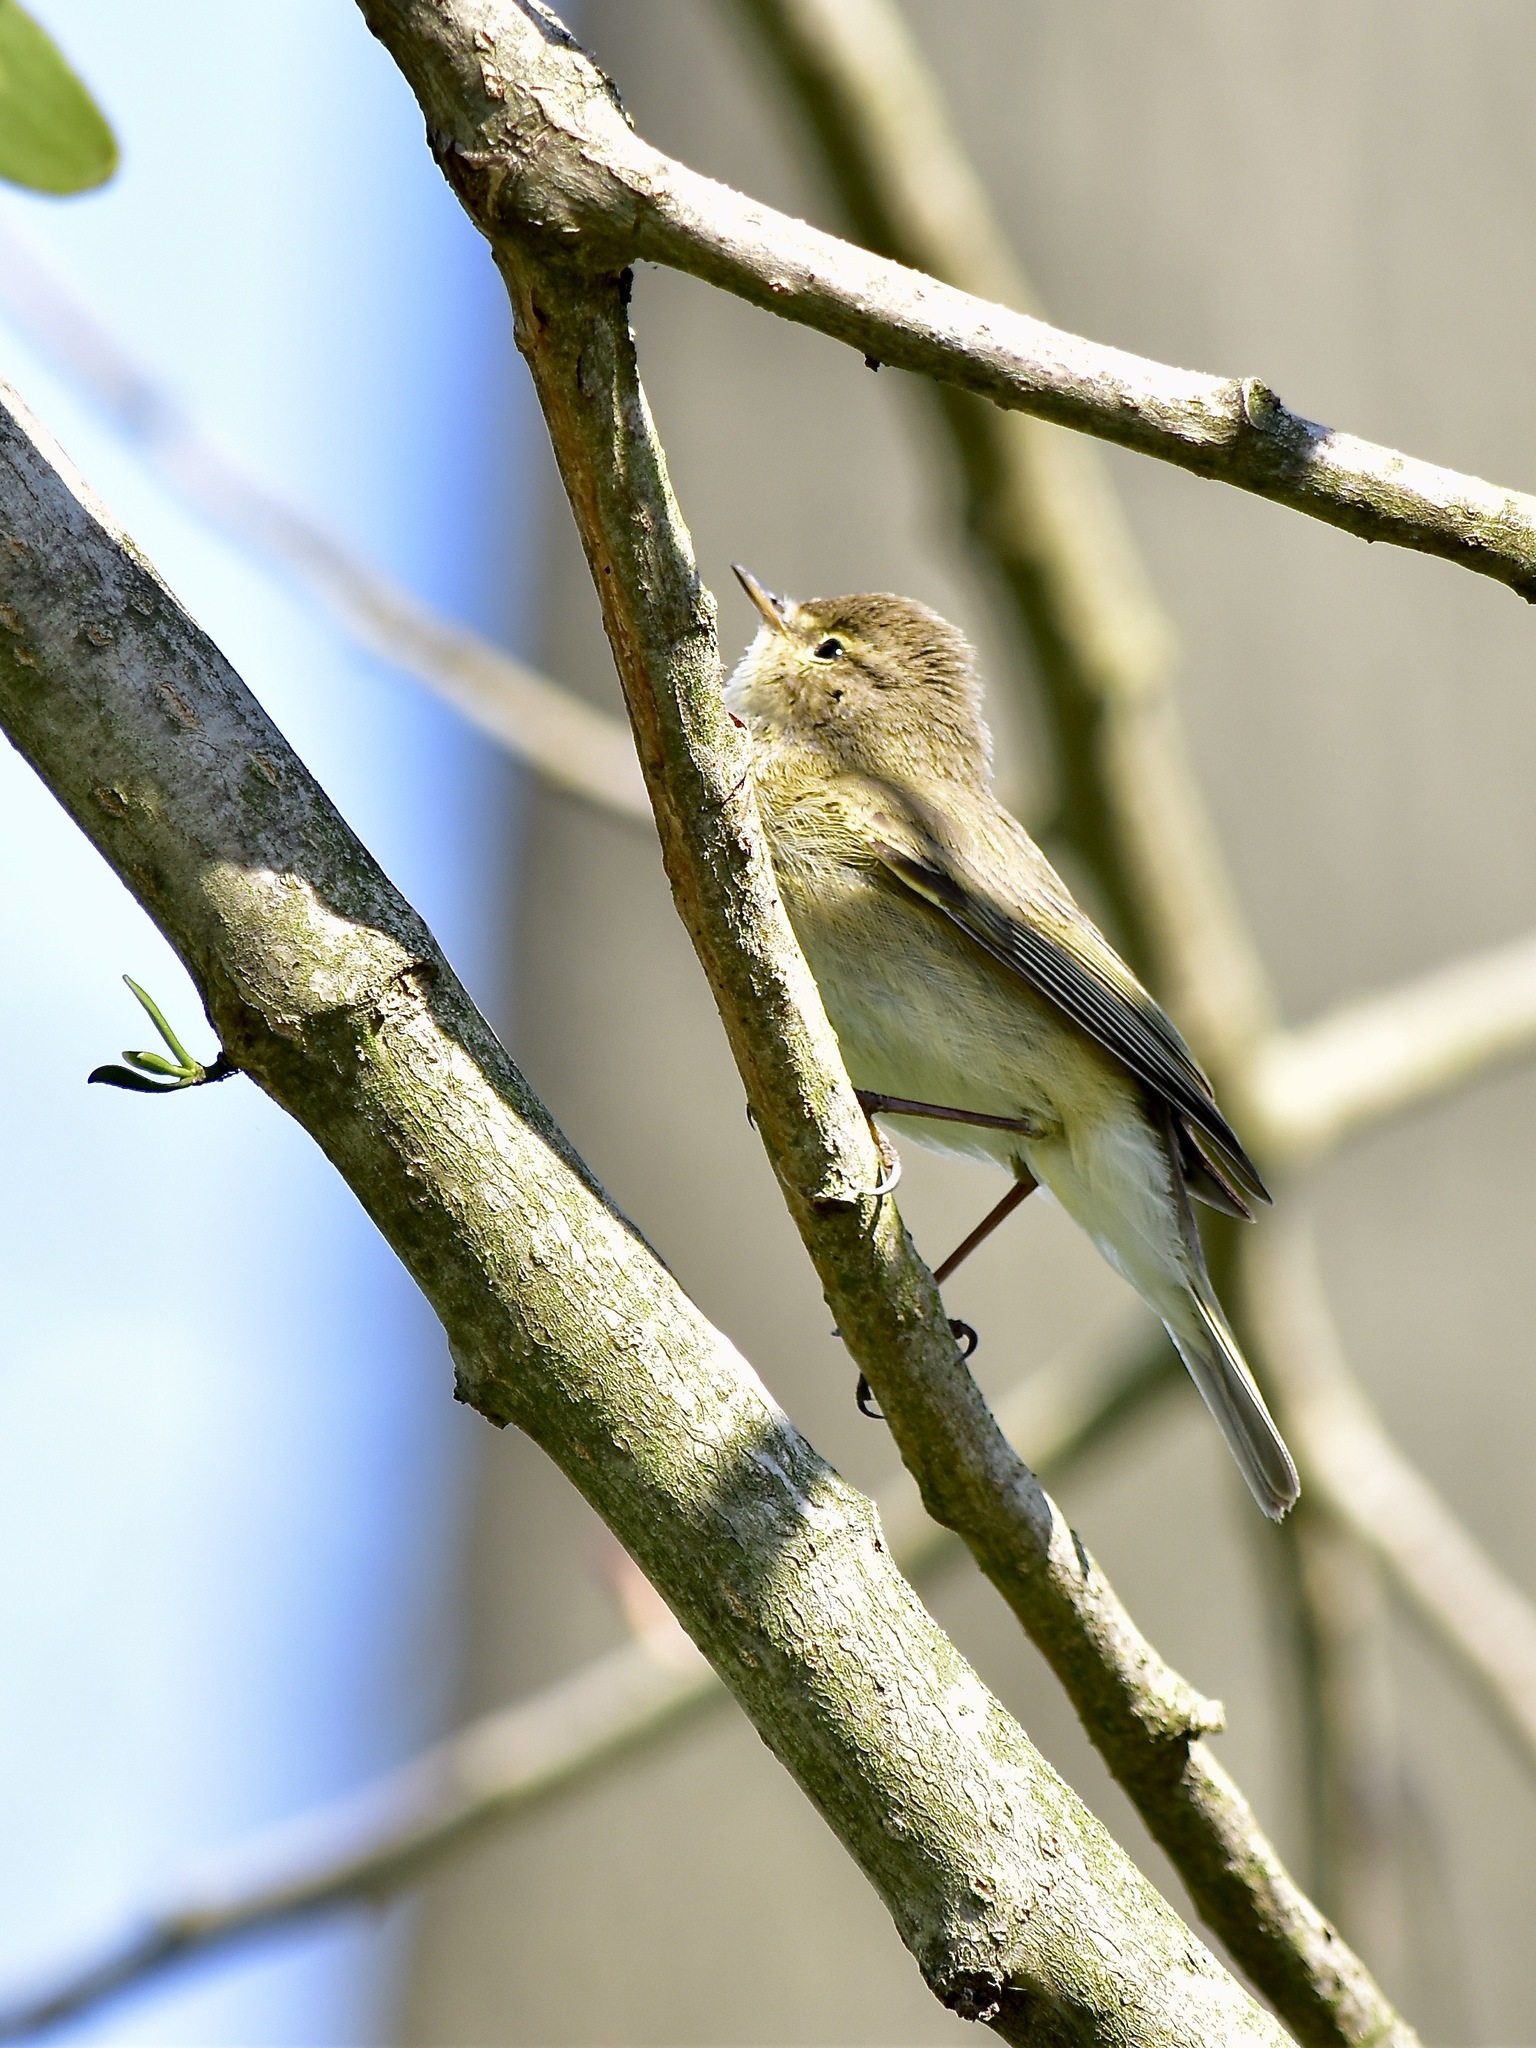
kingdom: Animalia
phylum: Chordata
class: Aves
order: Passeriformes
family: Phylloscopidae
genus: Phylloscopus
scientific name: Phylloscopus collybita
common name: Common chiffchaff
